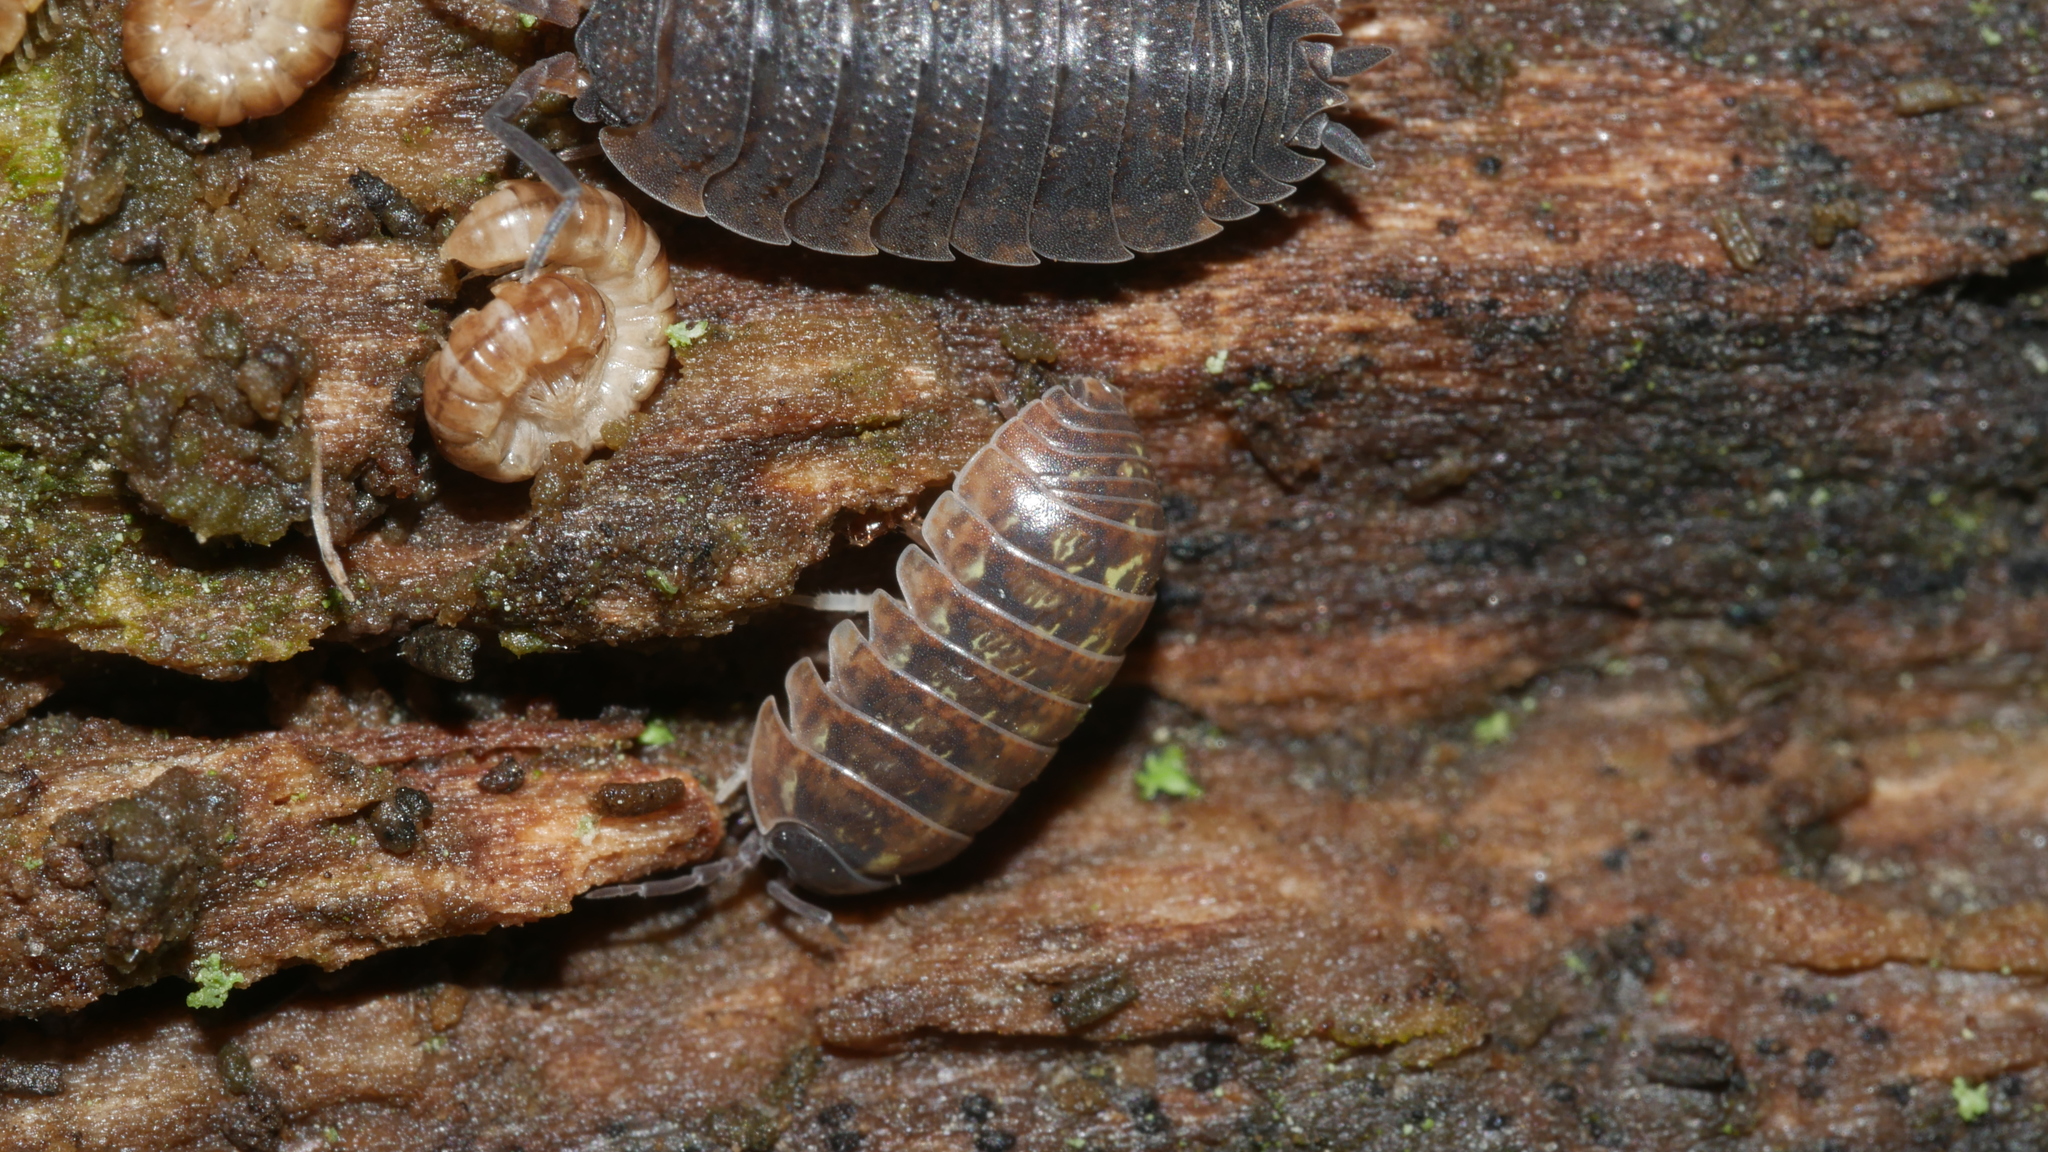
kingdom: Animalia
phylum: Arthropoda
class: Malacostraca
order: Isopoda
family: Armadillidiidae
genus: Armadillidium
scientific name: Armadillidium vulgare
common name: Common pill woodlouse
